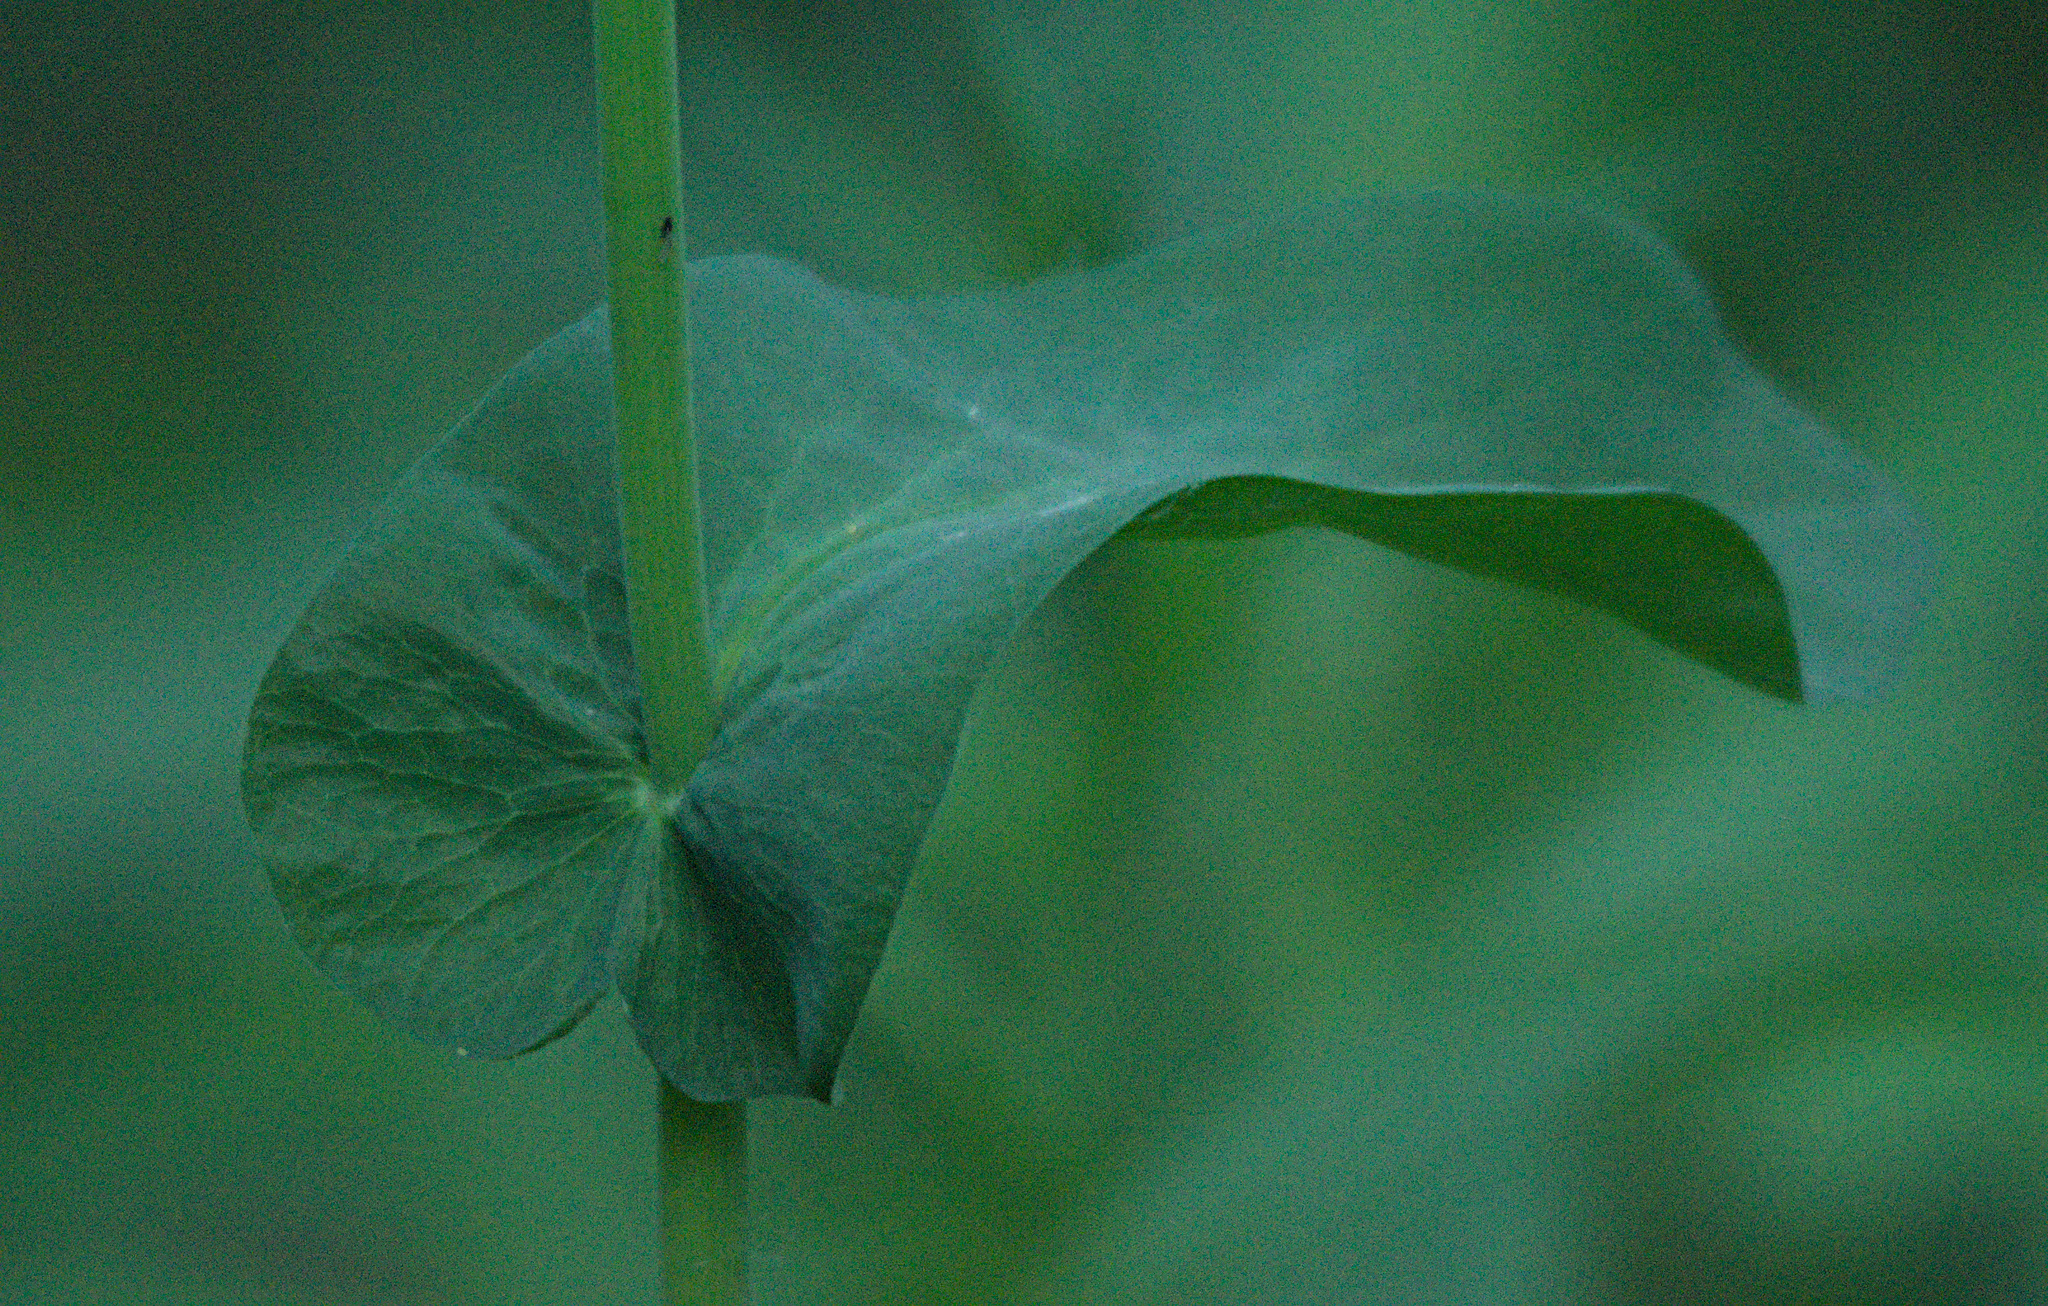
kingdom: Plantae
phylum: Tracheophyta
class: Magnoliopsida
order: Apiales
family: Apiaceae
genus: Bupleurum
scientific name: Bupleurum aureum
